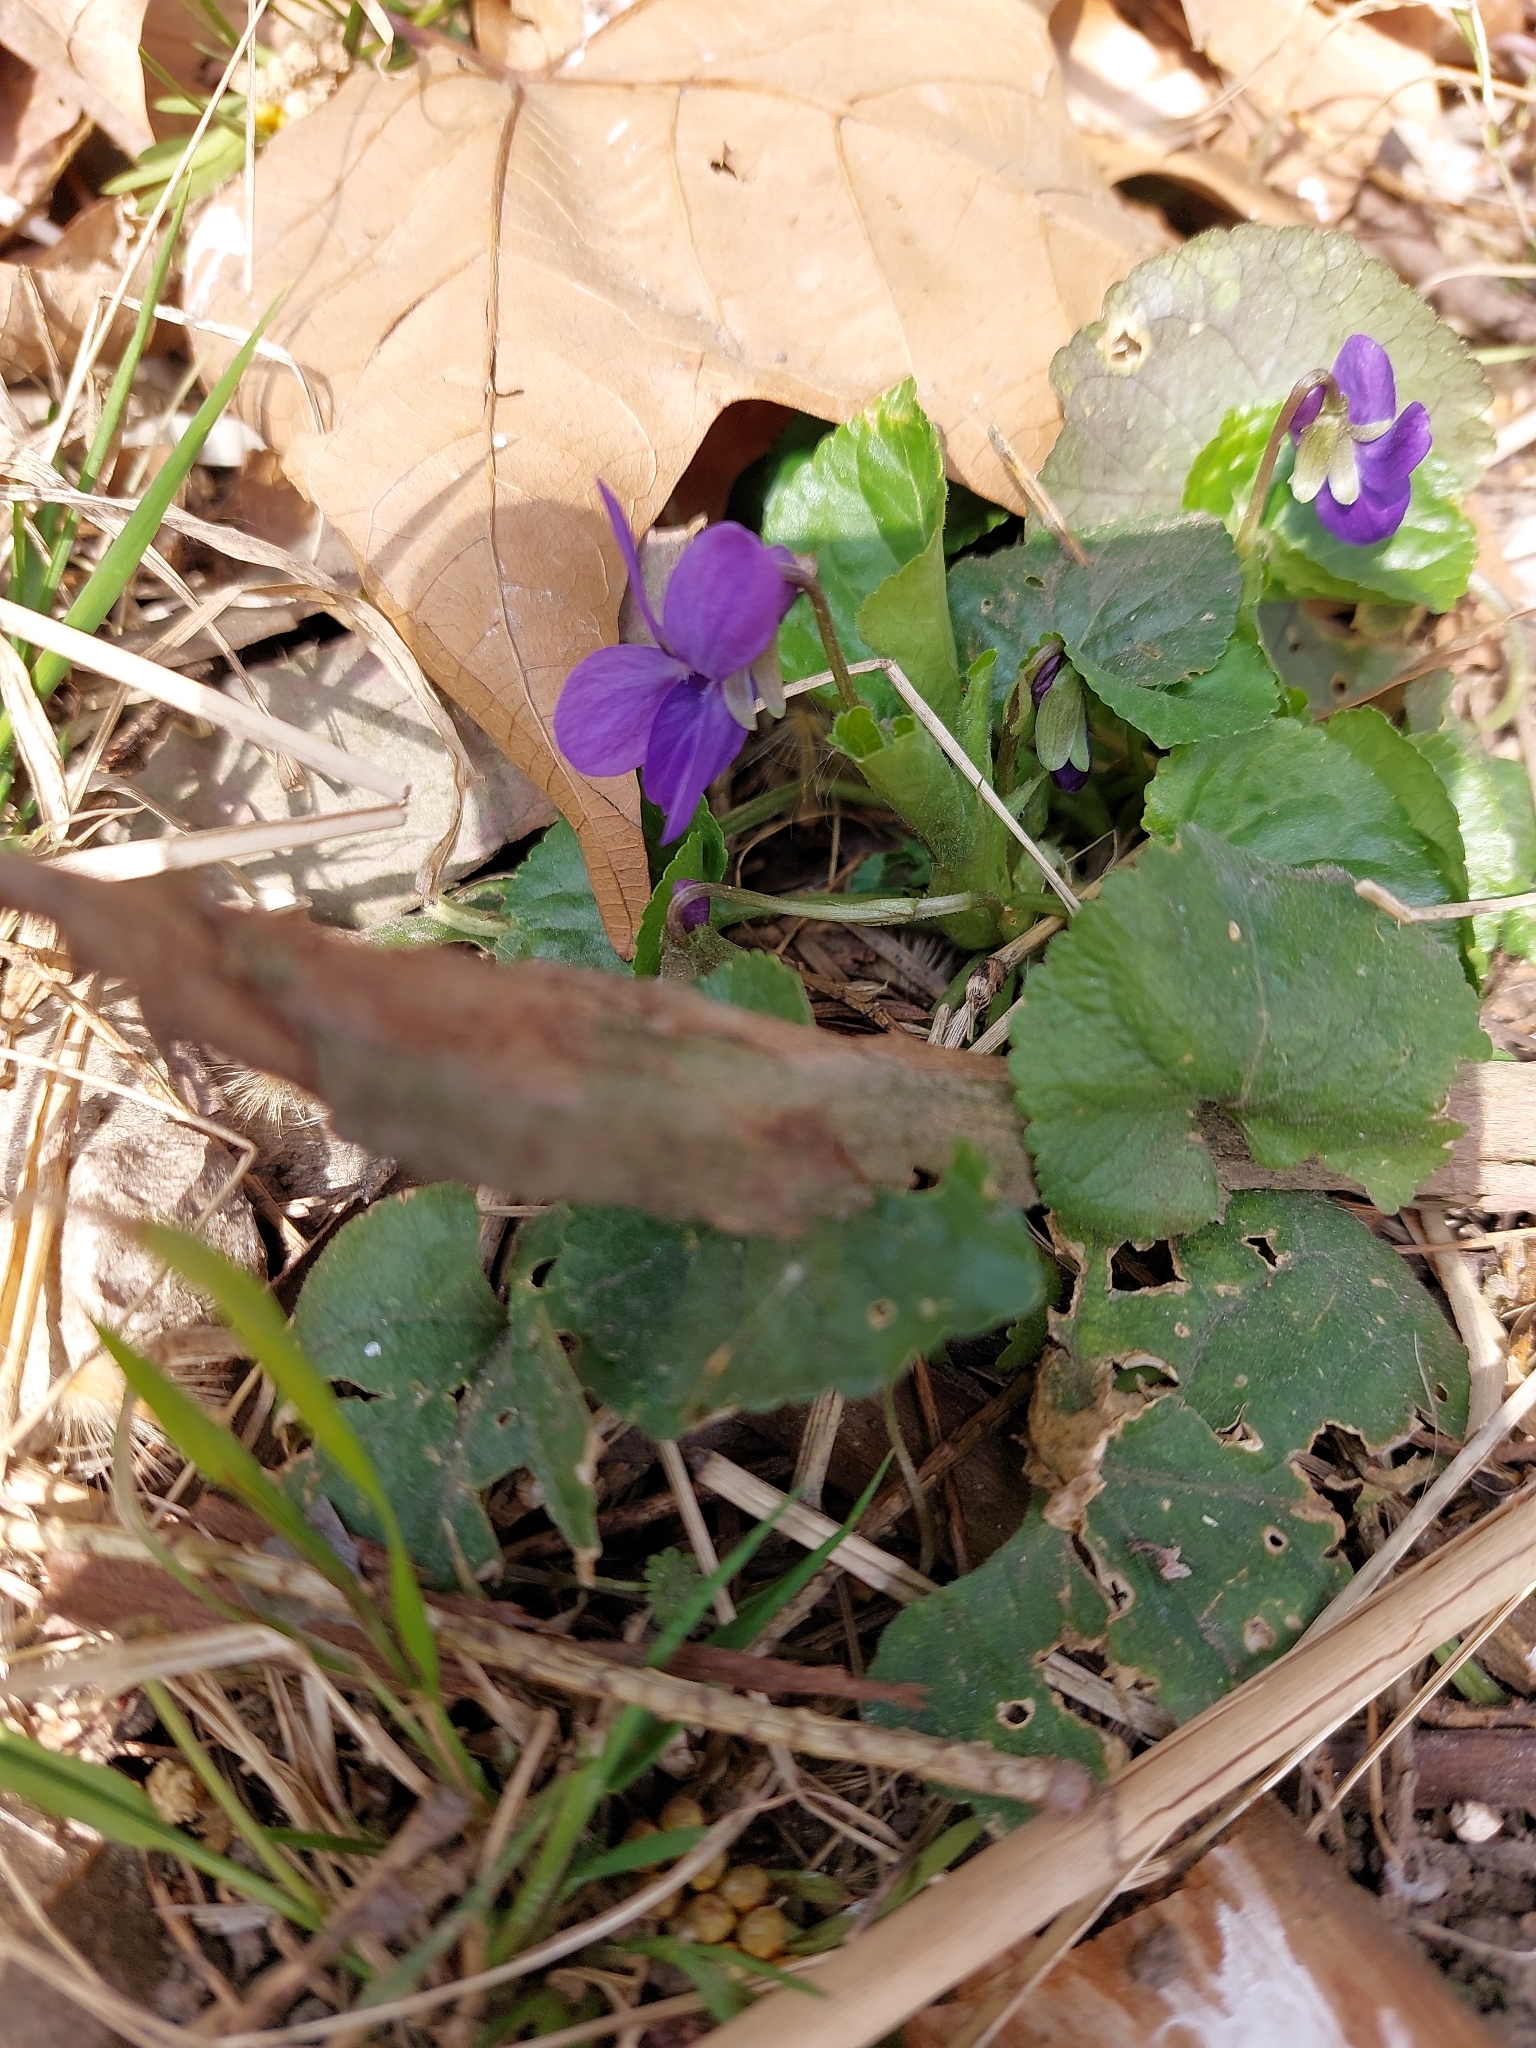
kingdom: Plantae
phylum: Tracheophyta
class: Magnoliopsida
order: Malpighiales
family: Violaceae
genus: Viola
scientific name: Viola odorata
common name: Sweet violet
